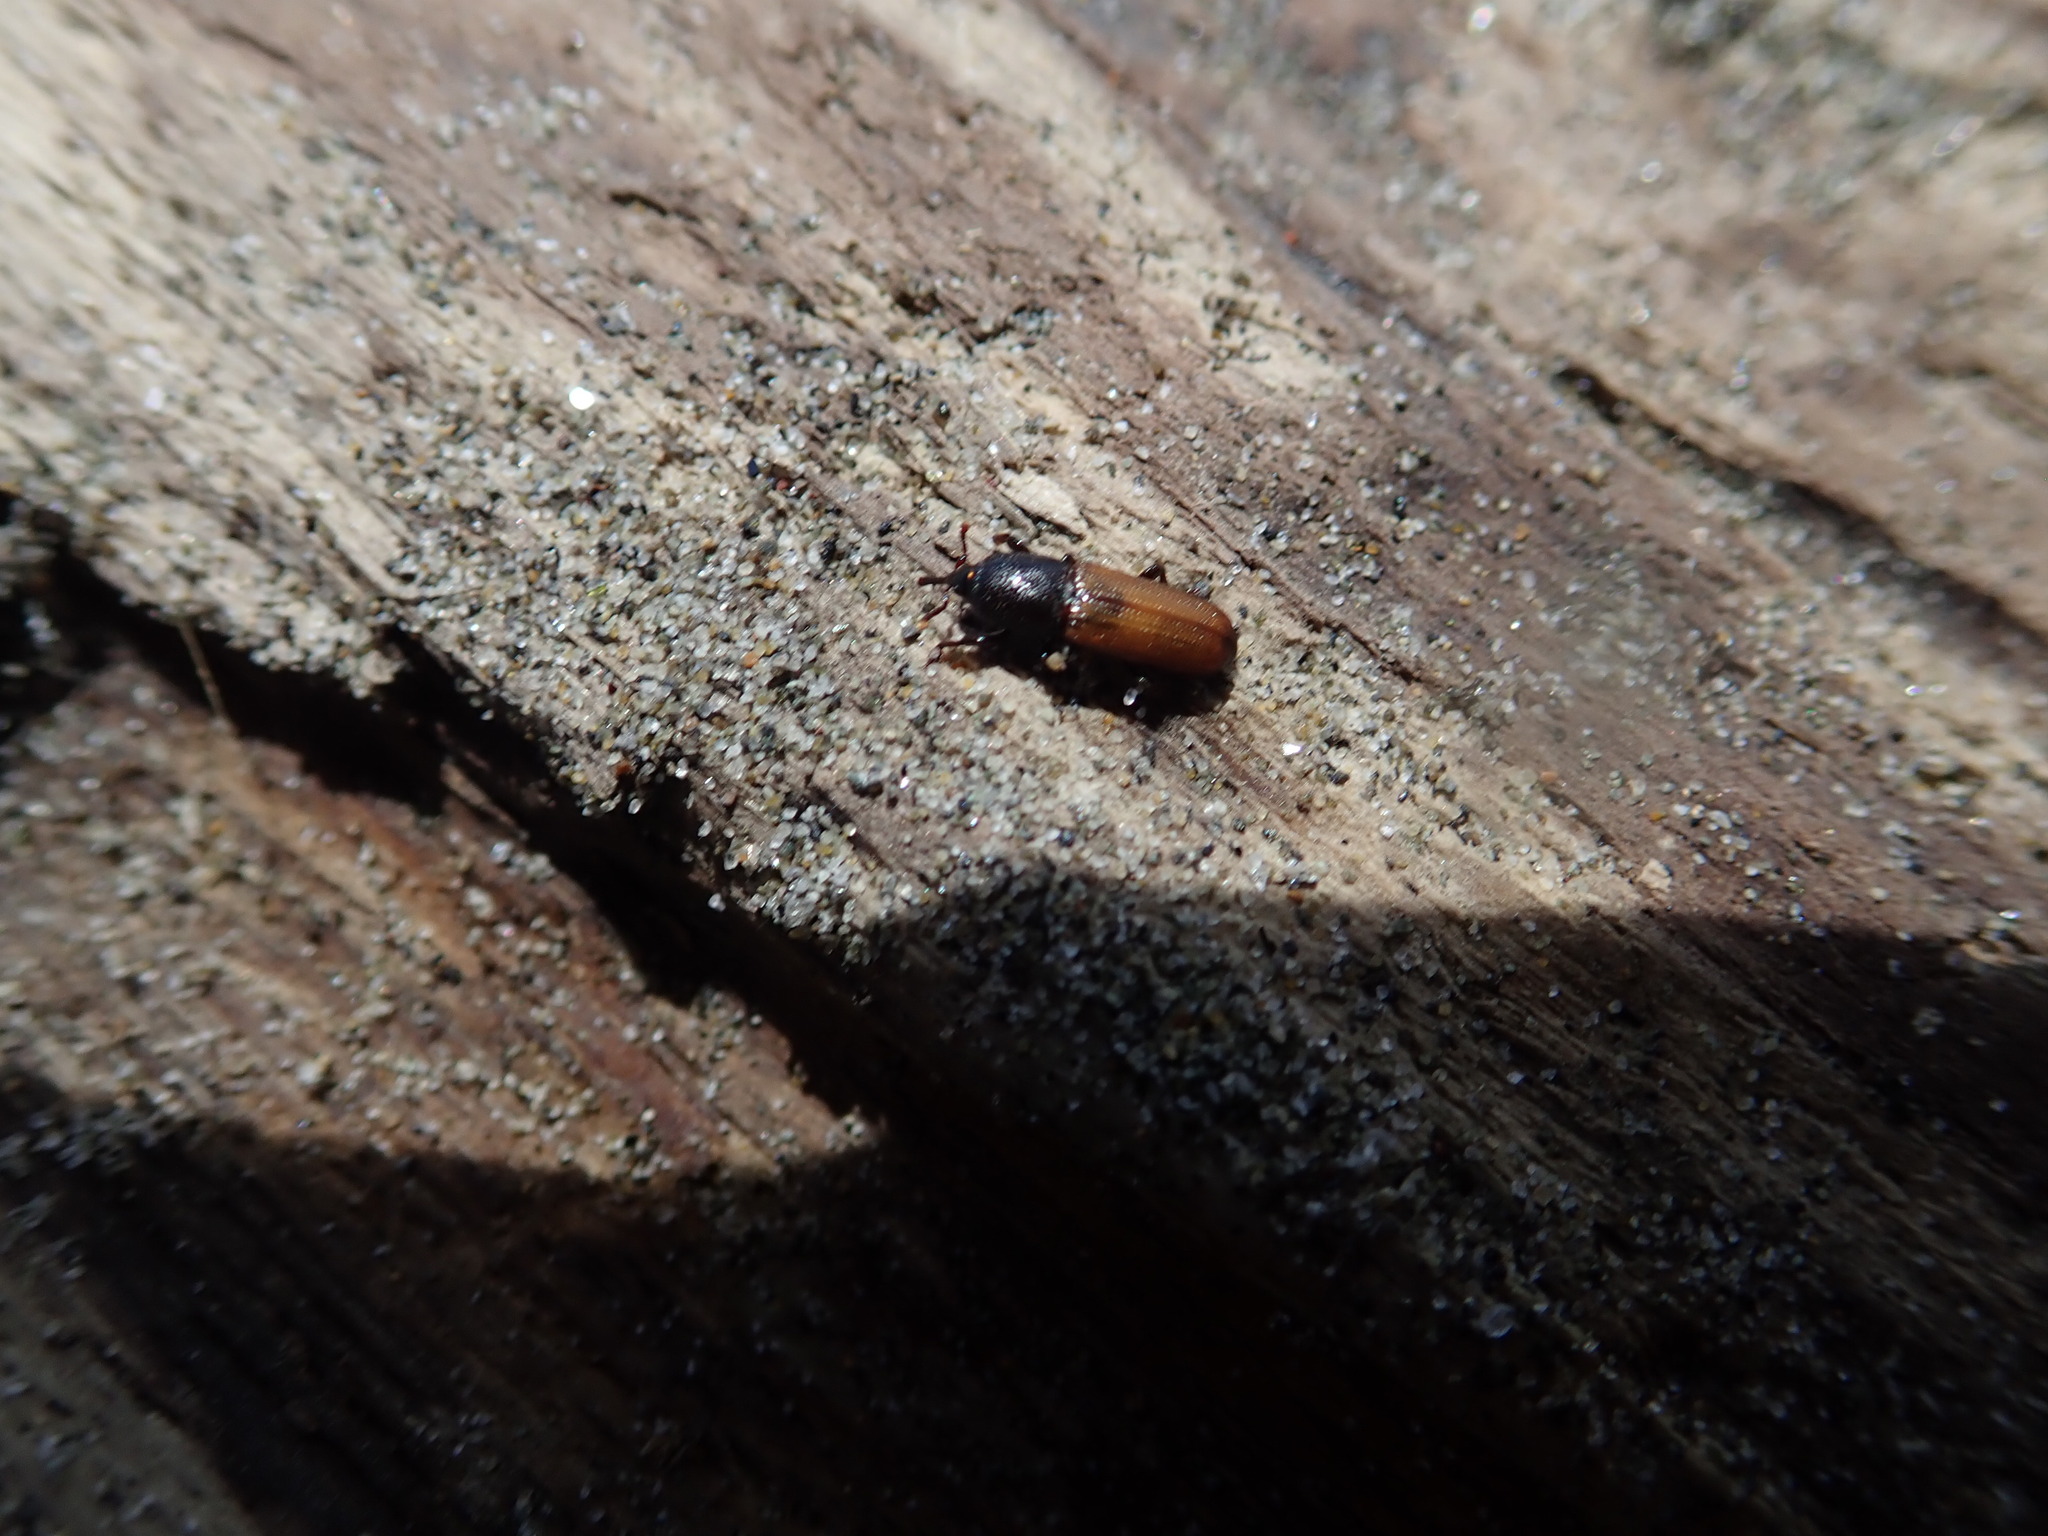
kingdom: Animalia
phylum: Arthropoda
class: Insecta
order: Coleoptera
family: Curculionidae
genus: Mesites
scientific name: Mesites pallidipennis
